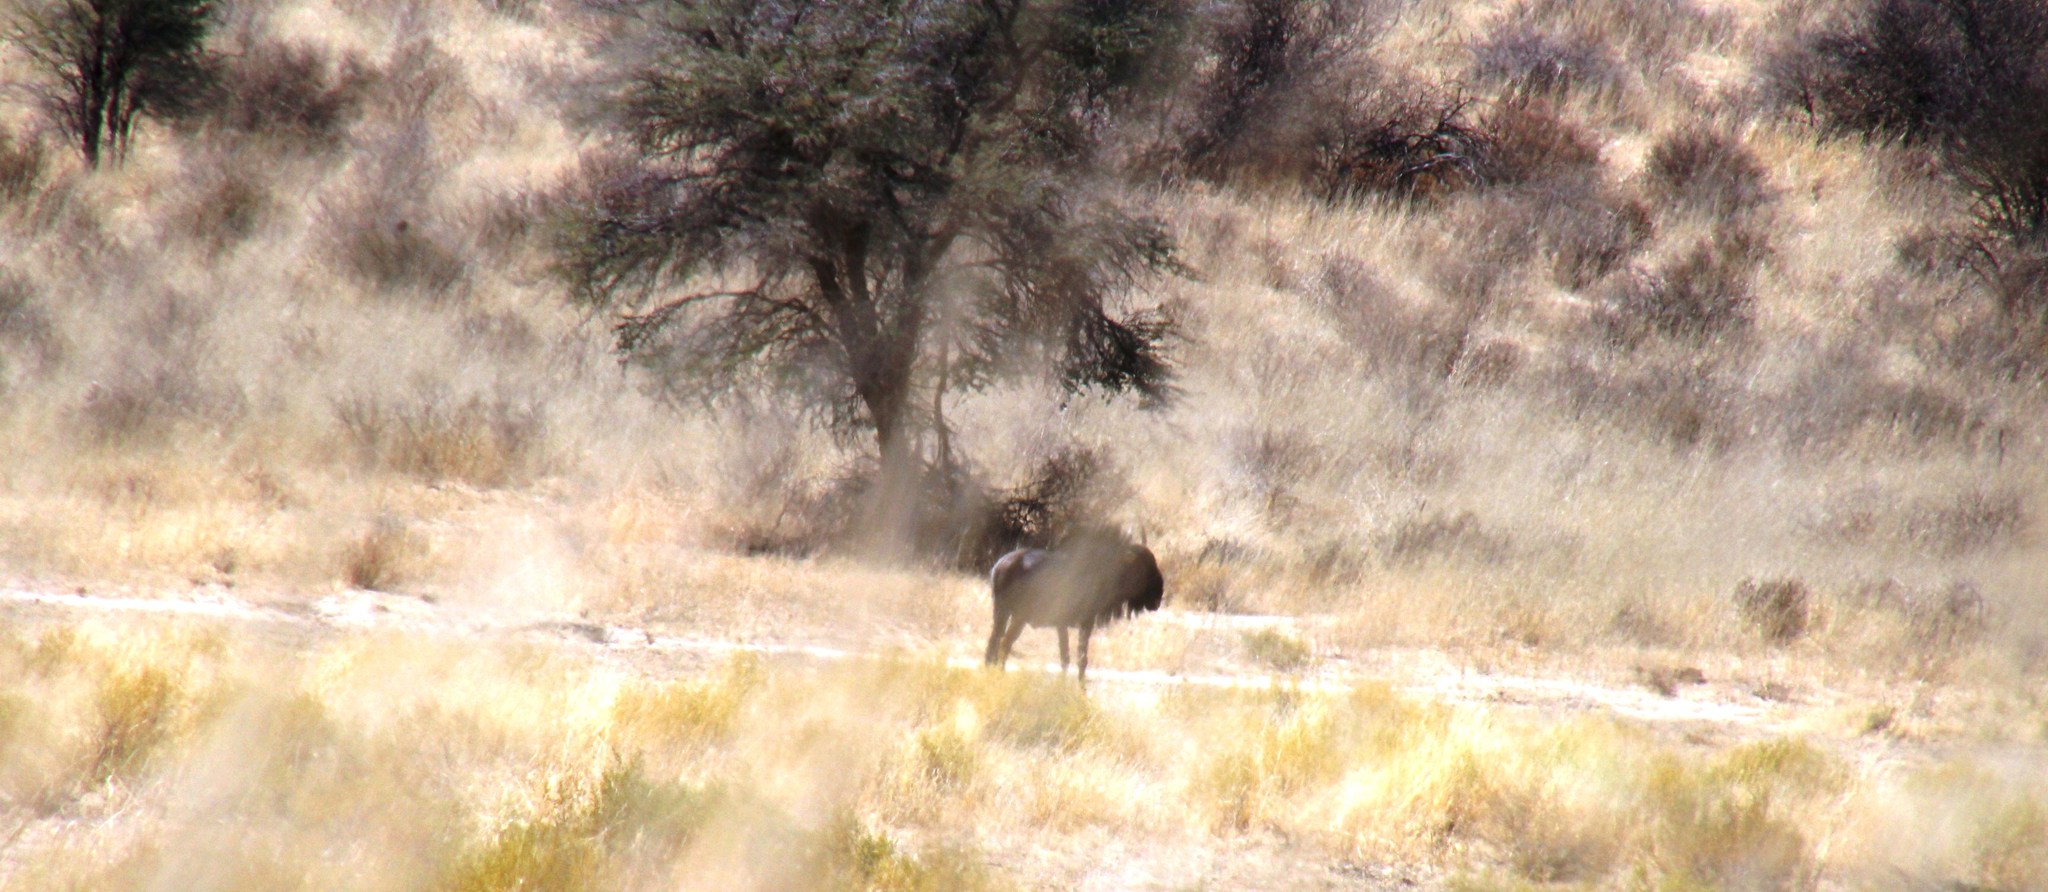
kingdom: Animalia
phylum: Chordata
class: Mammalia
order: Artiodactyla
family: Bovidae
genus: Connochaetes
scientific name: Connochaetes taurinus
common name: Blue wildebeest
